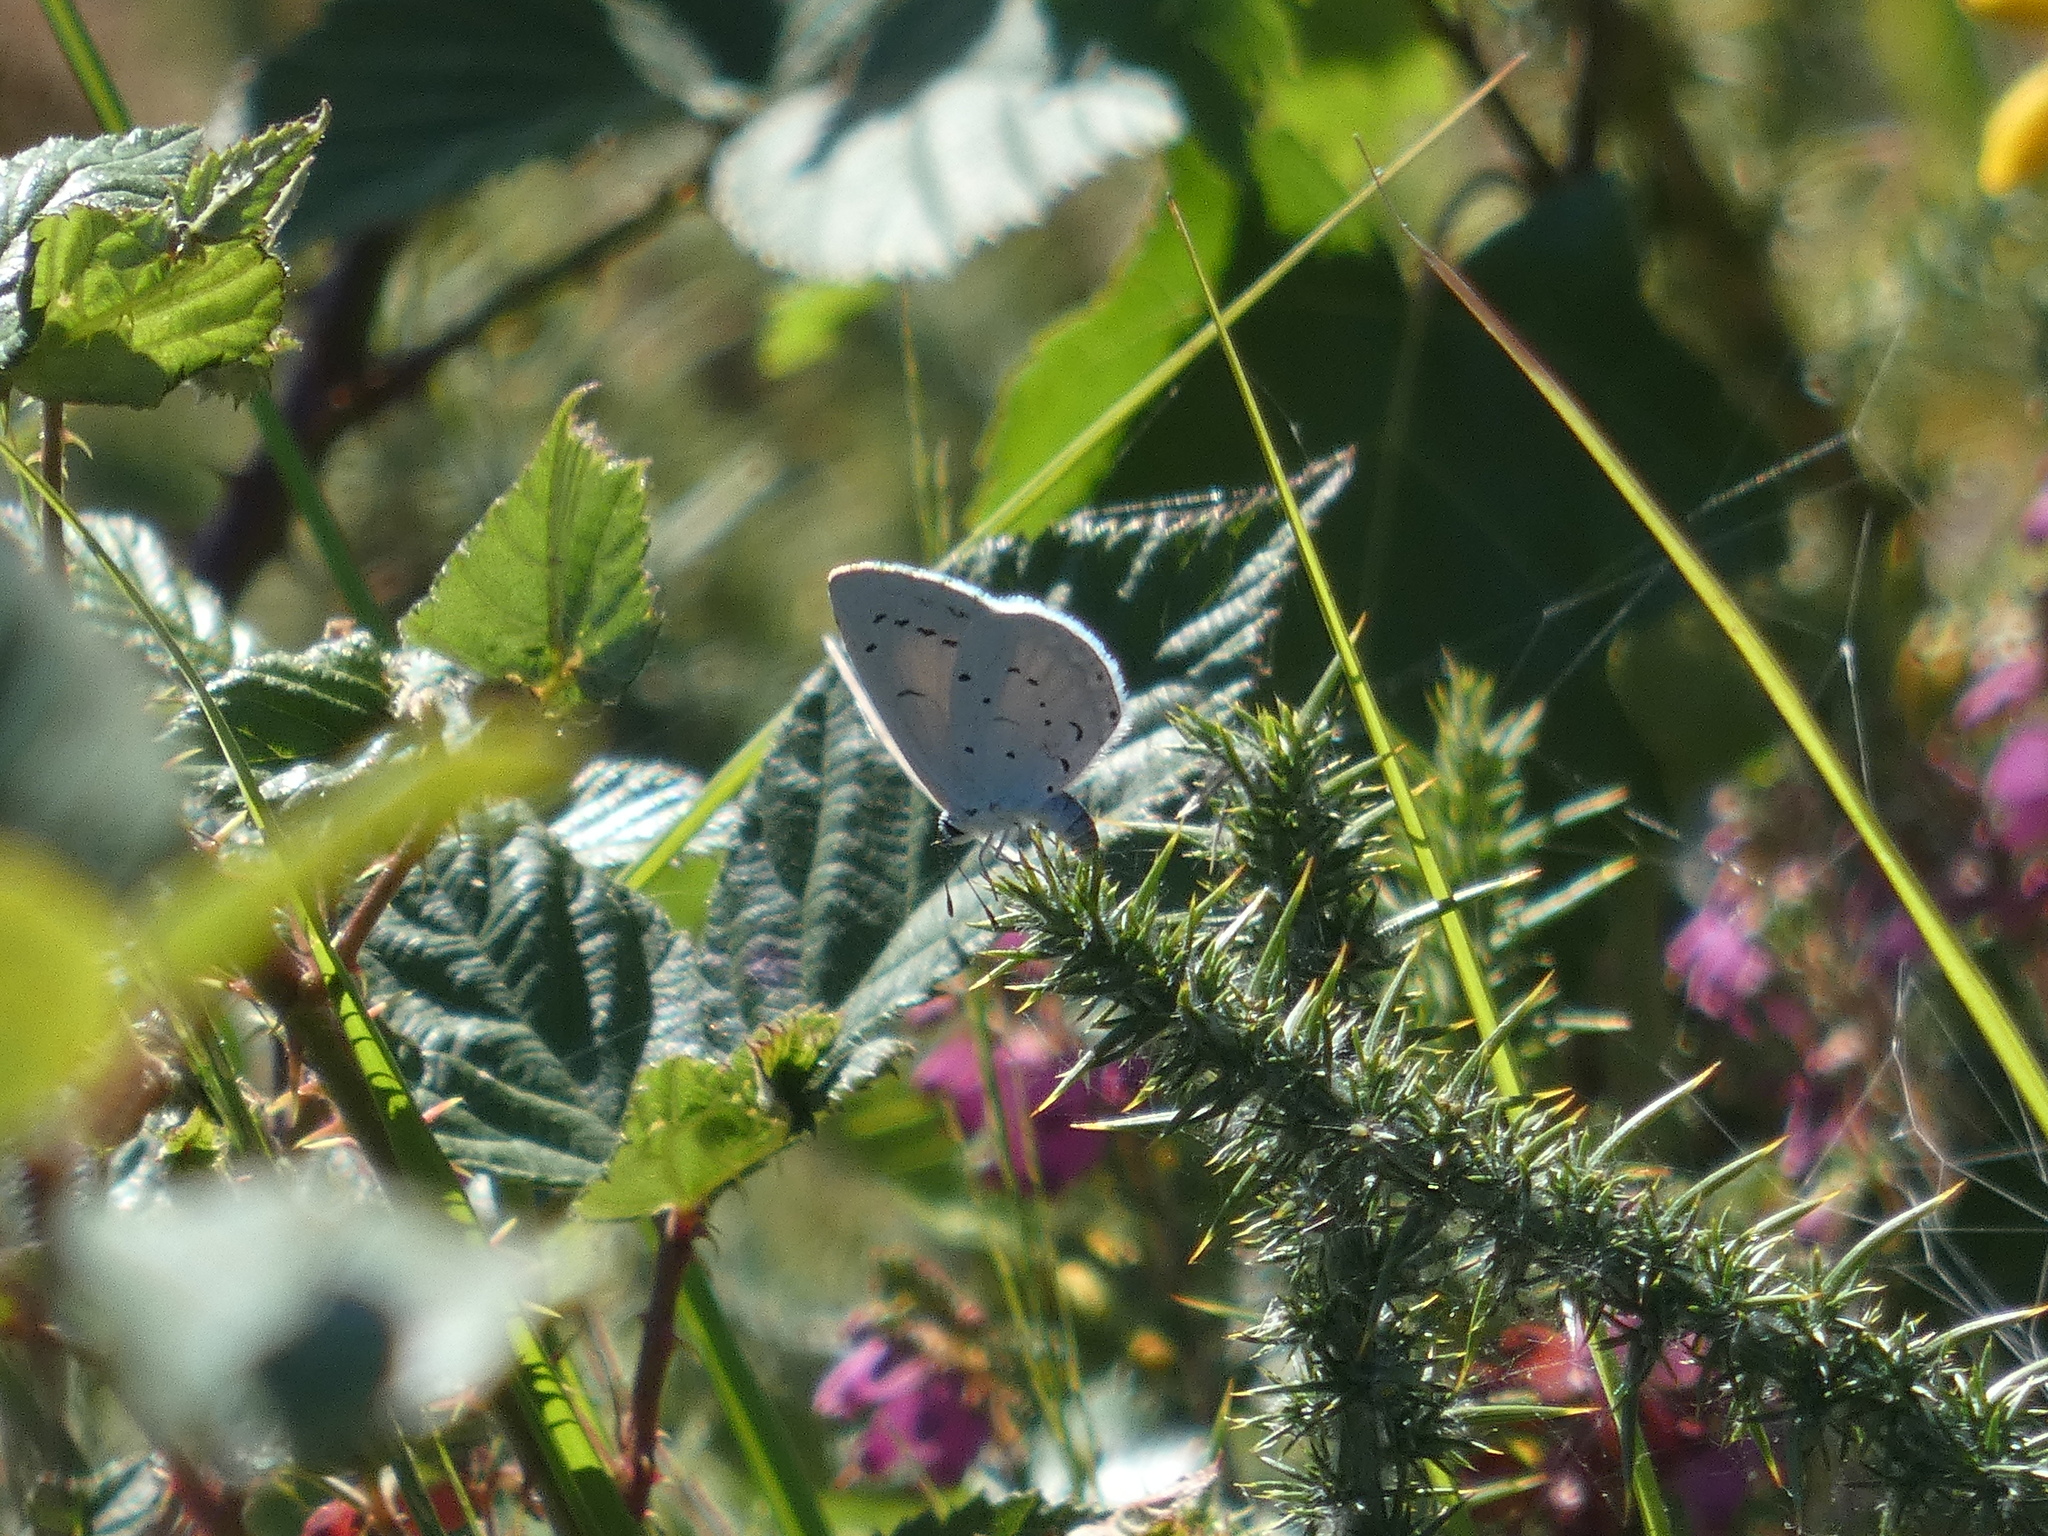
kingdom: Animalia
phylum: Arthropoda
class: Insecta
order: Lepidoptera
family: Lycaenidae
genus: Celastrina
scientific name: Celastrina argiolus
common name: Holly blue
